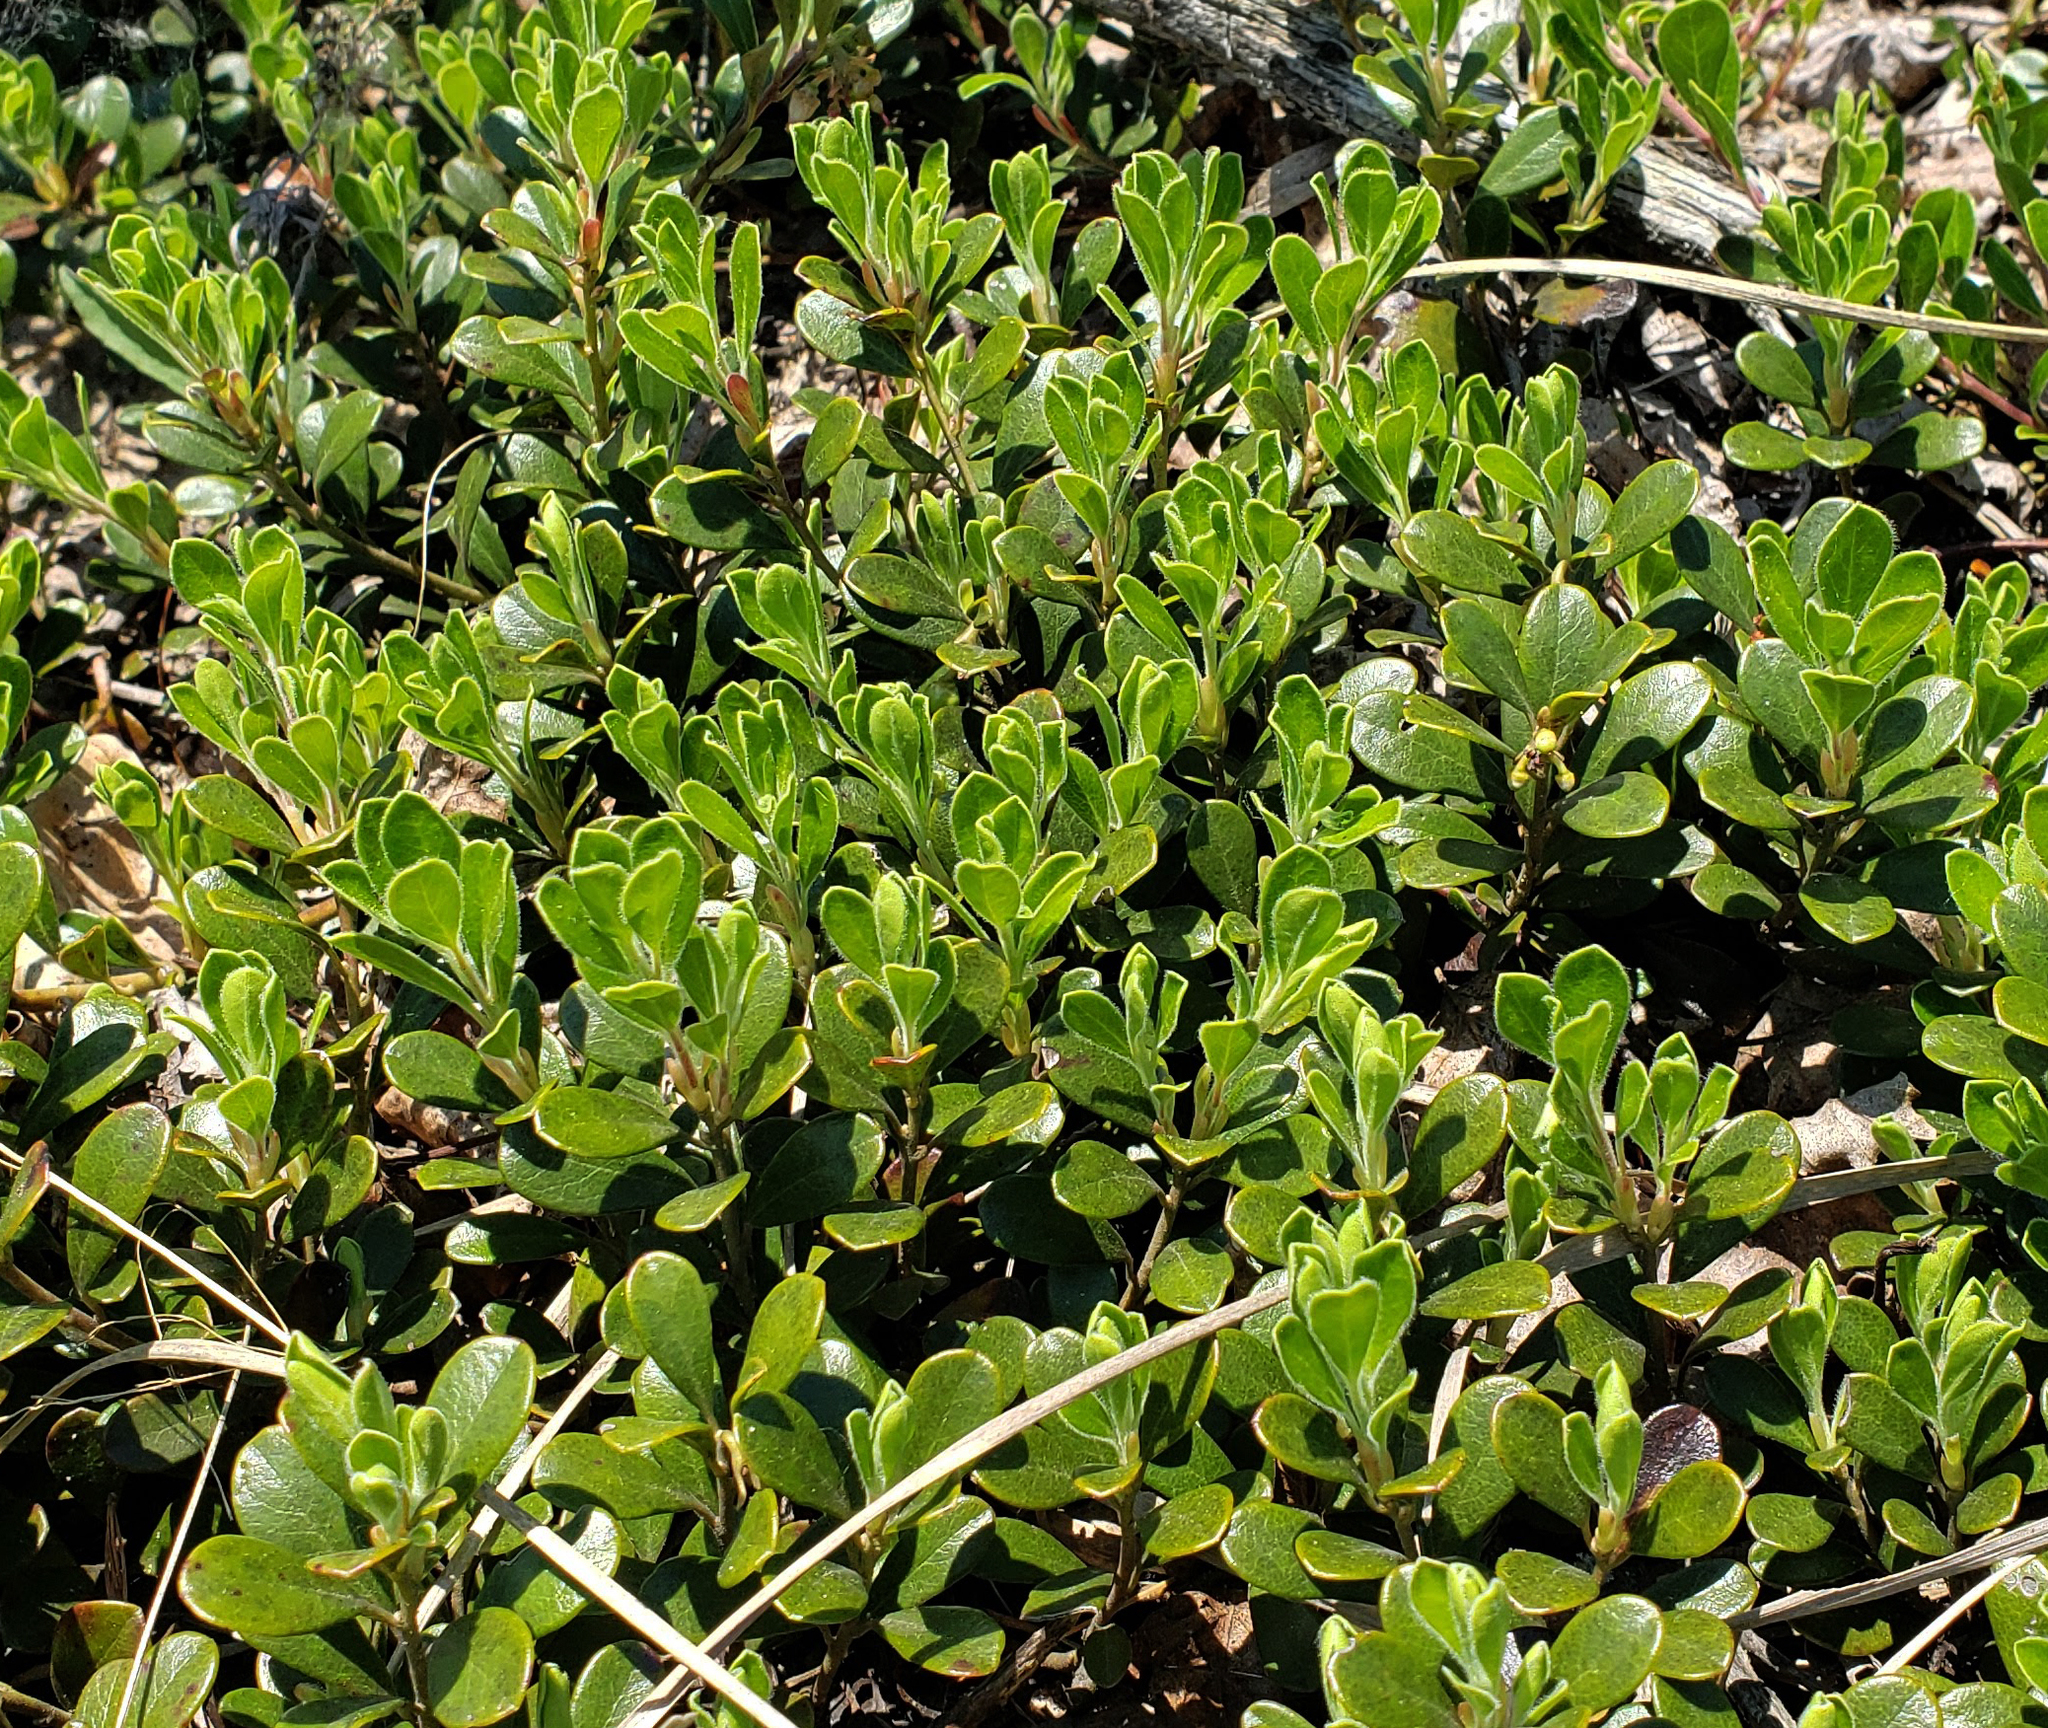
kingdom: Plantae
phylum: Tracheophyta
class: Magnoliopsida
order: Ericales
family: Ericaceae
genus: Arctostaphylos
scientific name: Arctostaphylos uva-ursi
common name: Bearberry
